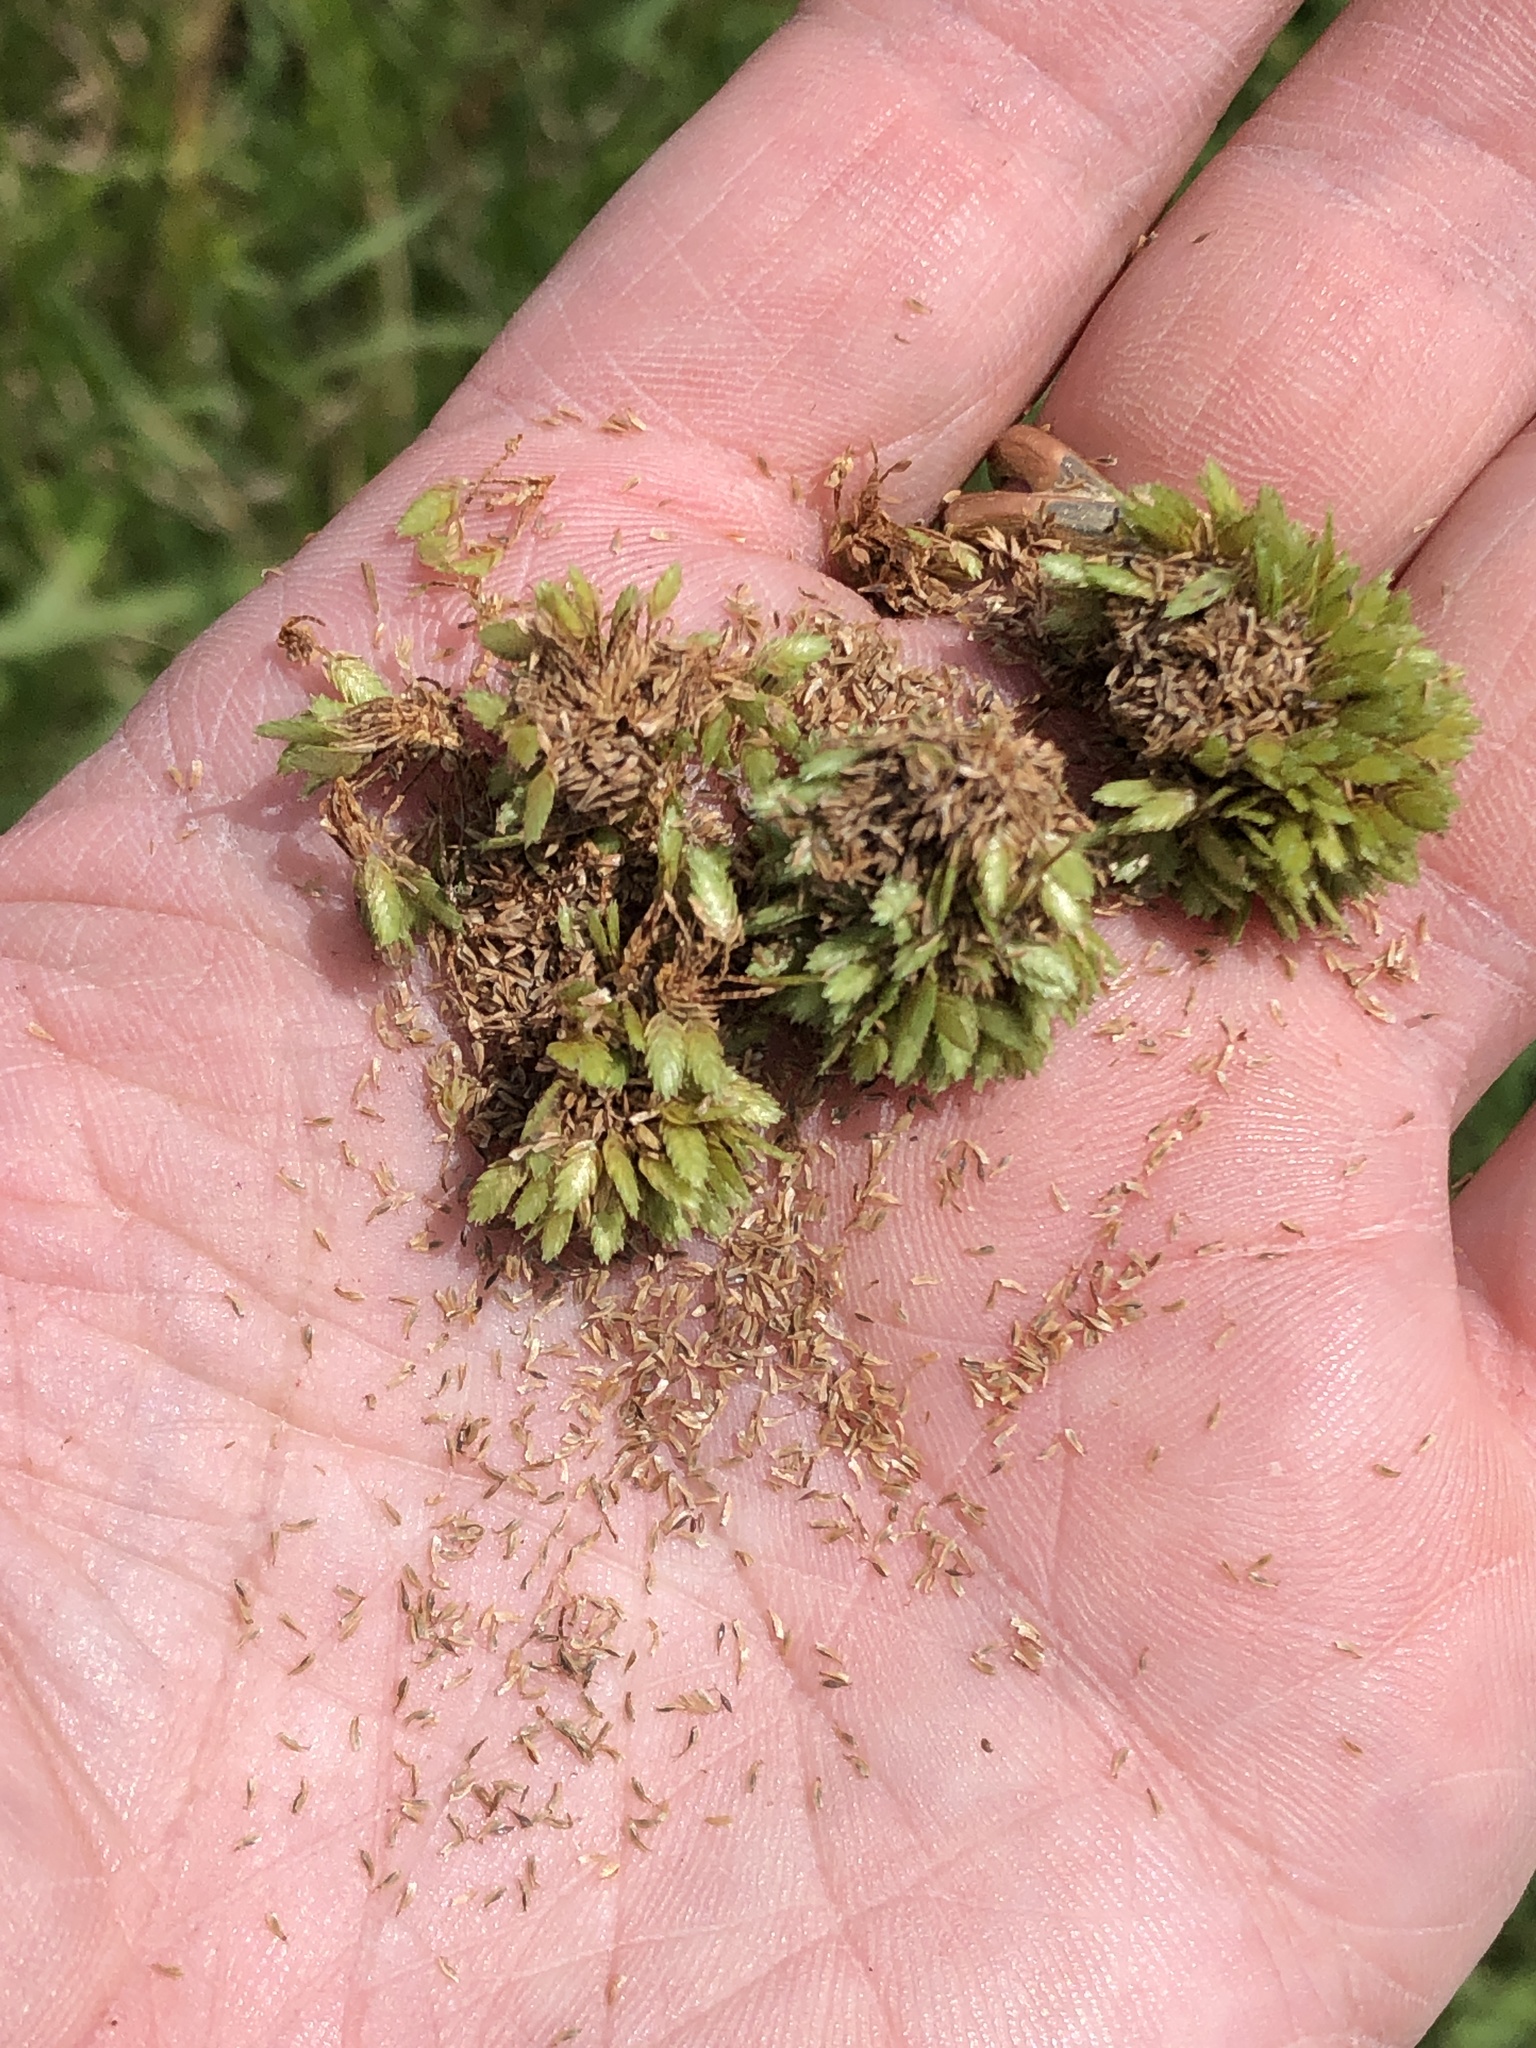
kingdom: Plantae
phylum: Tracheophyta
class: Liliopsida
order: Poales
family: Cyperaceae
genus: Cyperus
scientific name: Cyperus eragrostis
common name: Tall flatsedge
